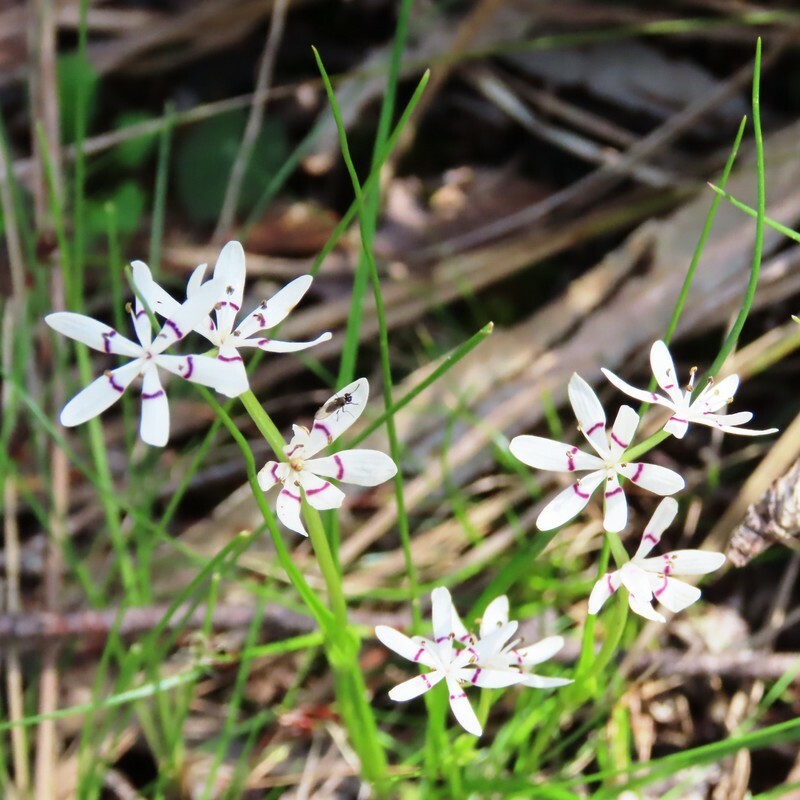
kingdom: Plantae
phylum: Tracheophyta
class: Liliopsida
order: Liliales
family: Colchicaceae
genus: Wurmbea
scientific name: Wurmbea dioica
